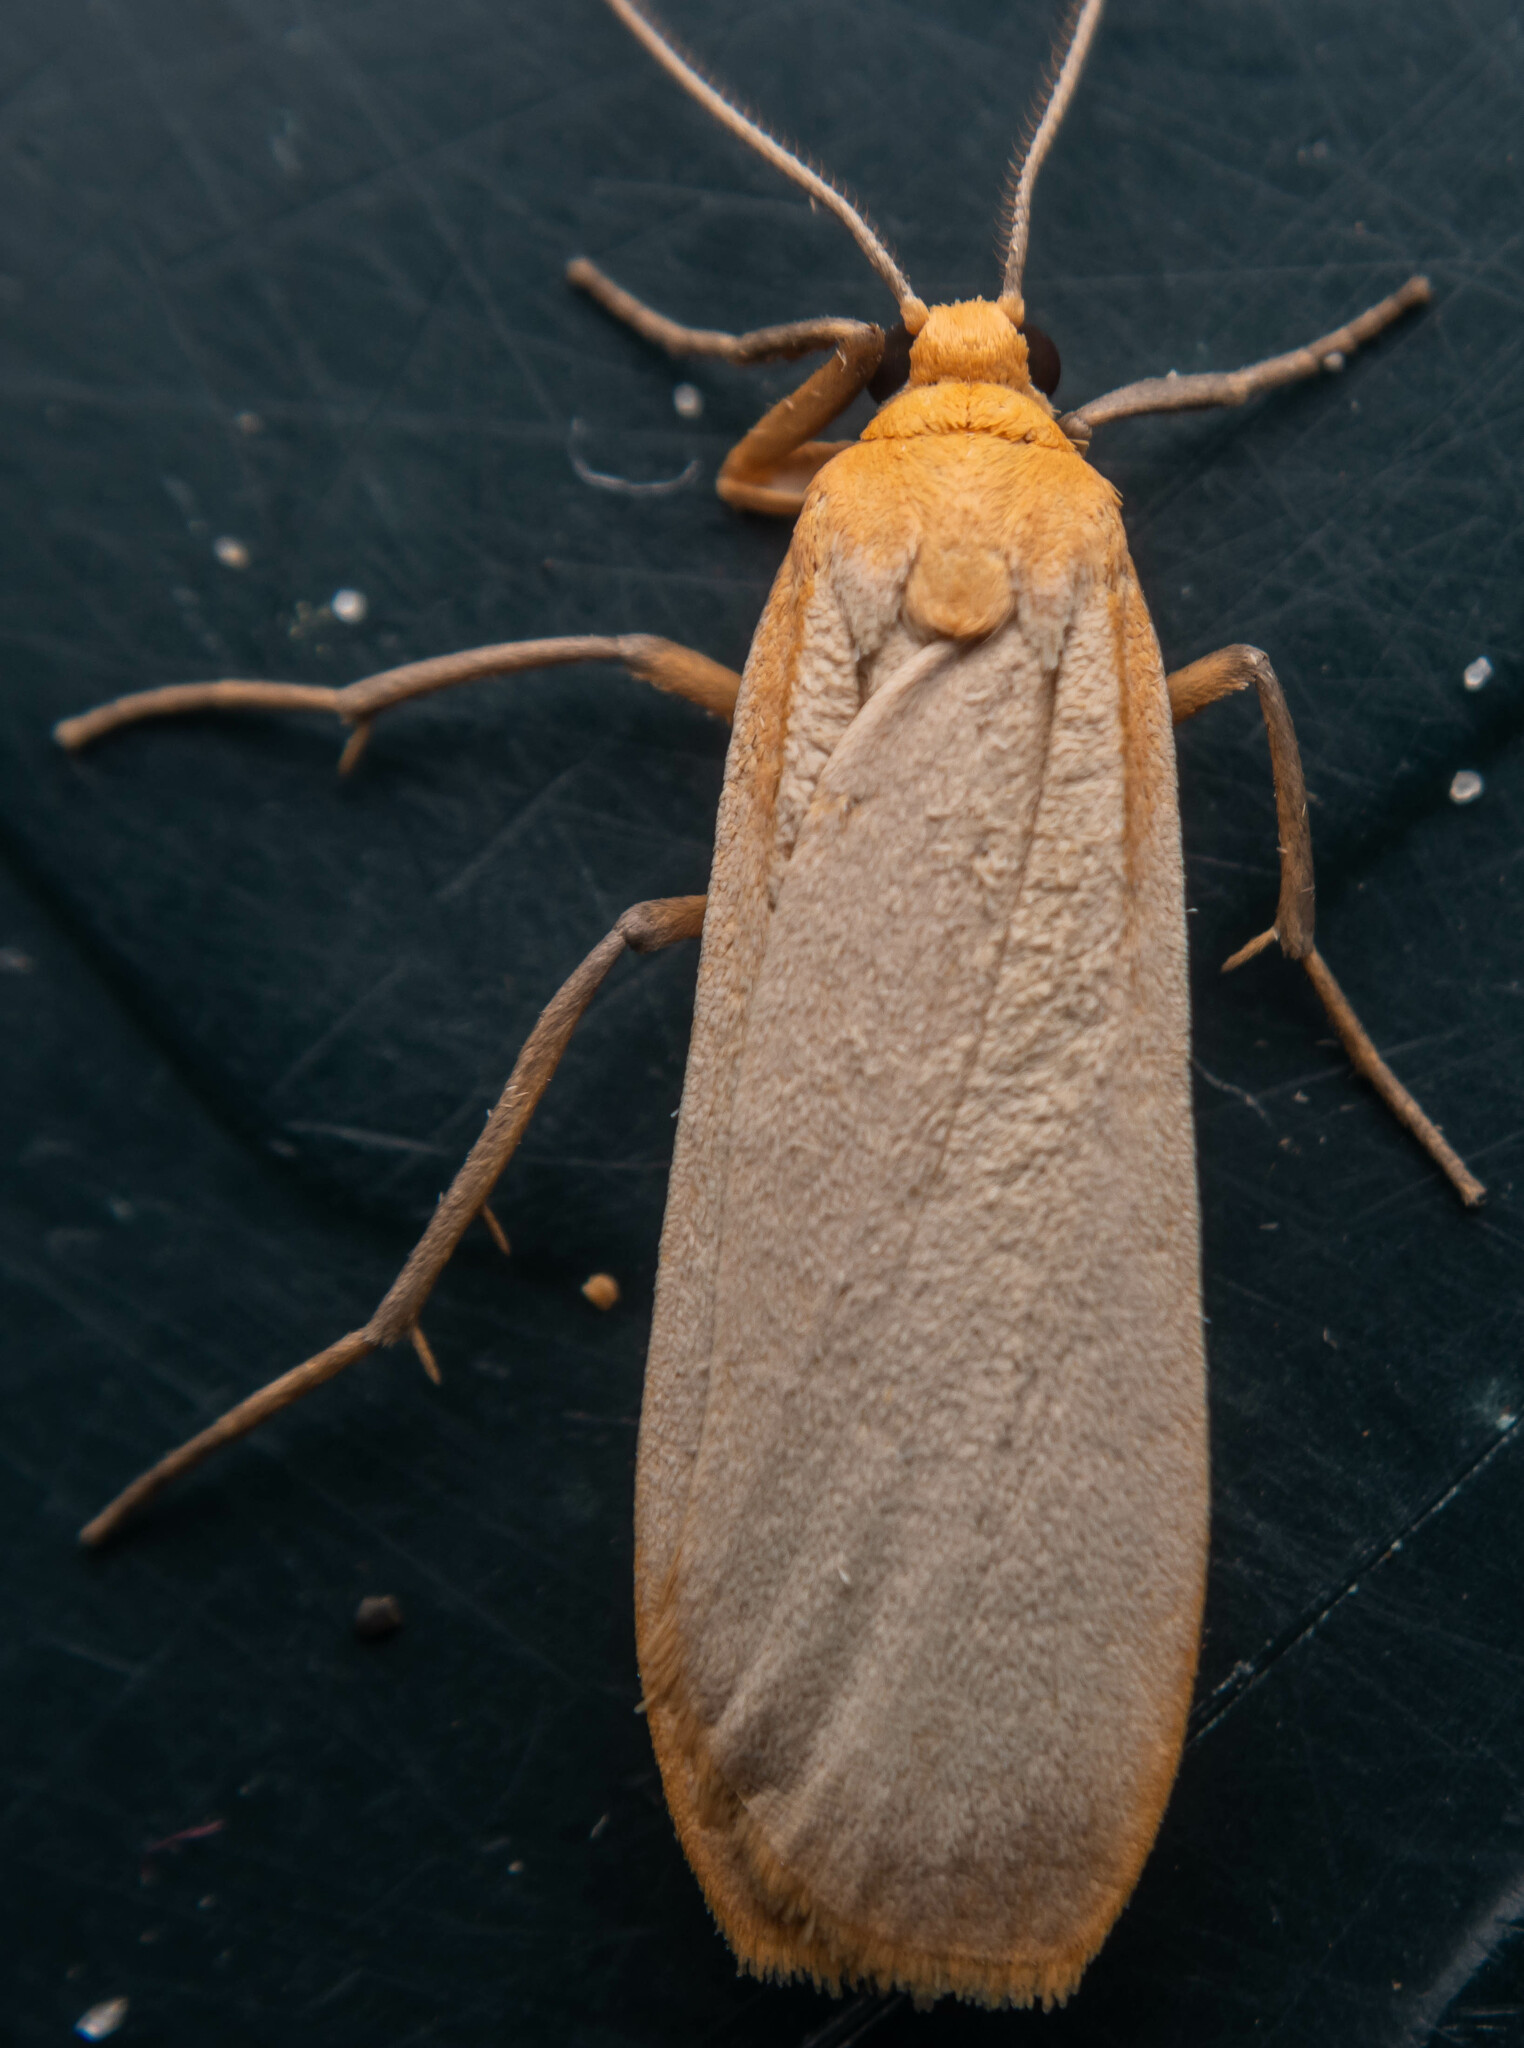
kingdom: Animalia
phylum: Arthropoda
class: Insecta
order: Lepidoptera
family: Erebidae
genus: Katha
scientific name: Katha depressa
